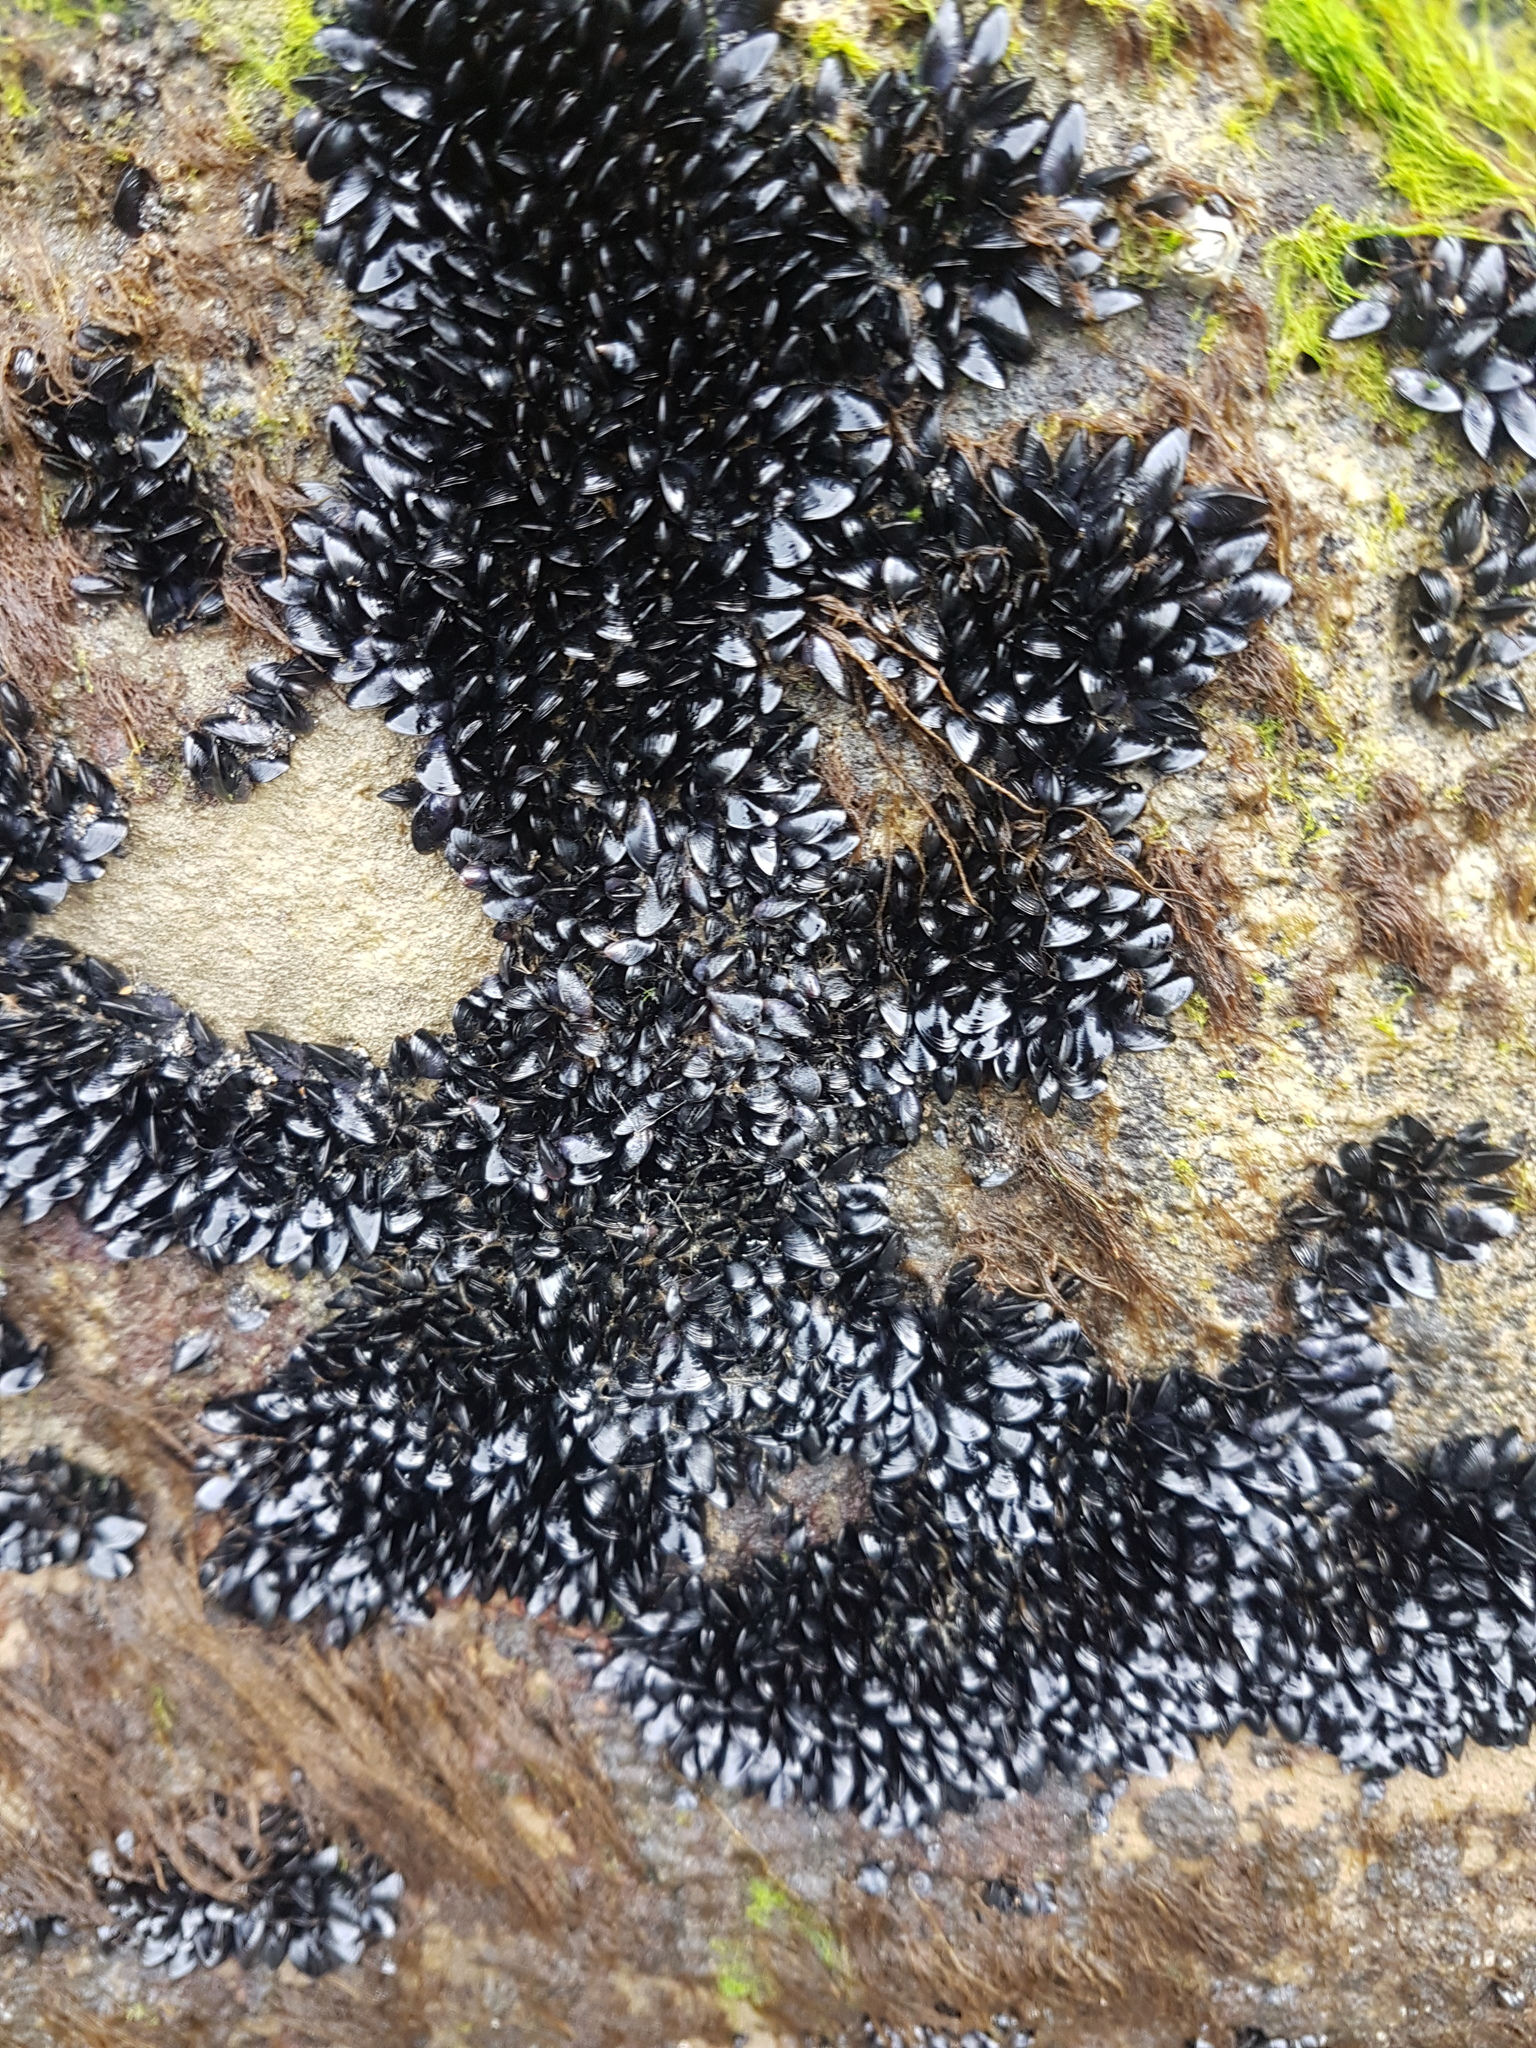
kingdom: Animalia
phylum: Mollusca
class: Bivalvia
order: Mytilida
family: Mytilidae
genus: Xenostrobus
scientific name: Xenostrobus neozelanicus
